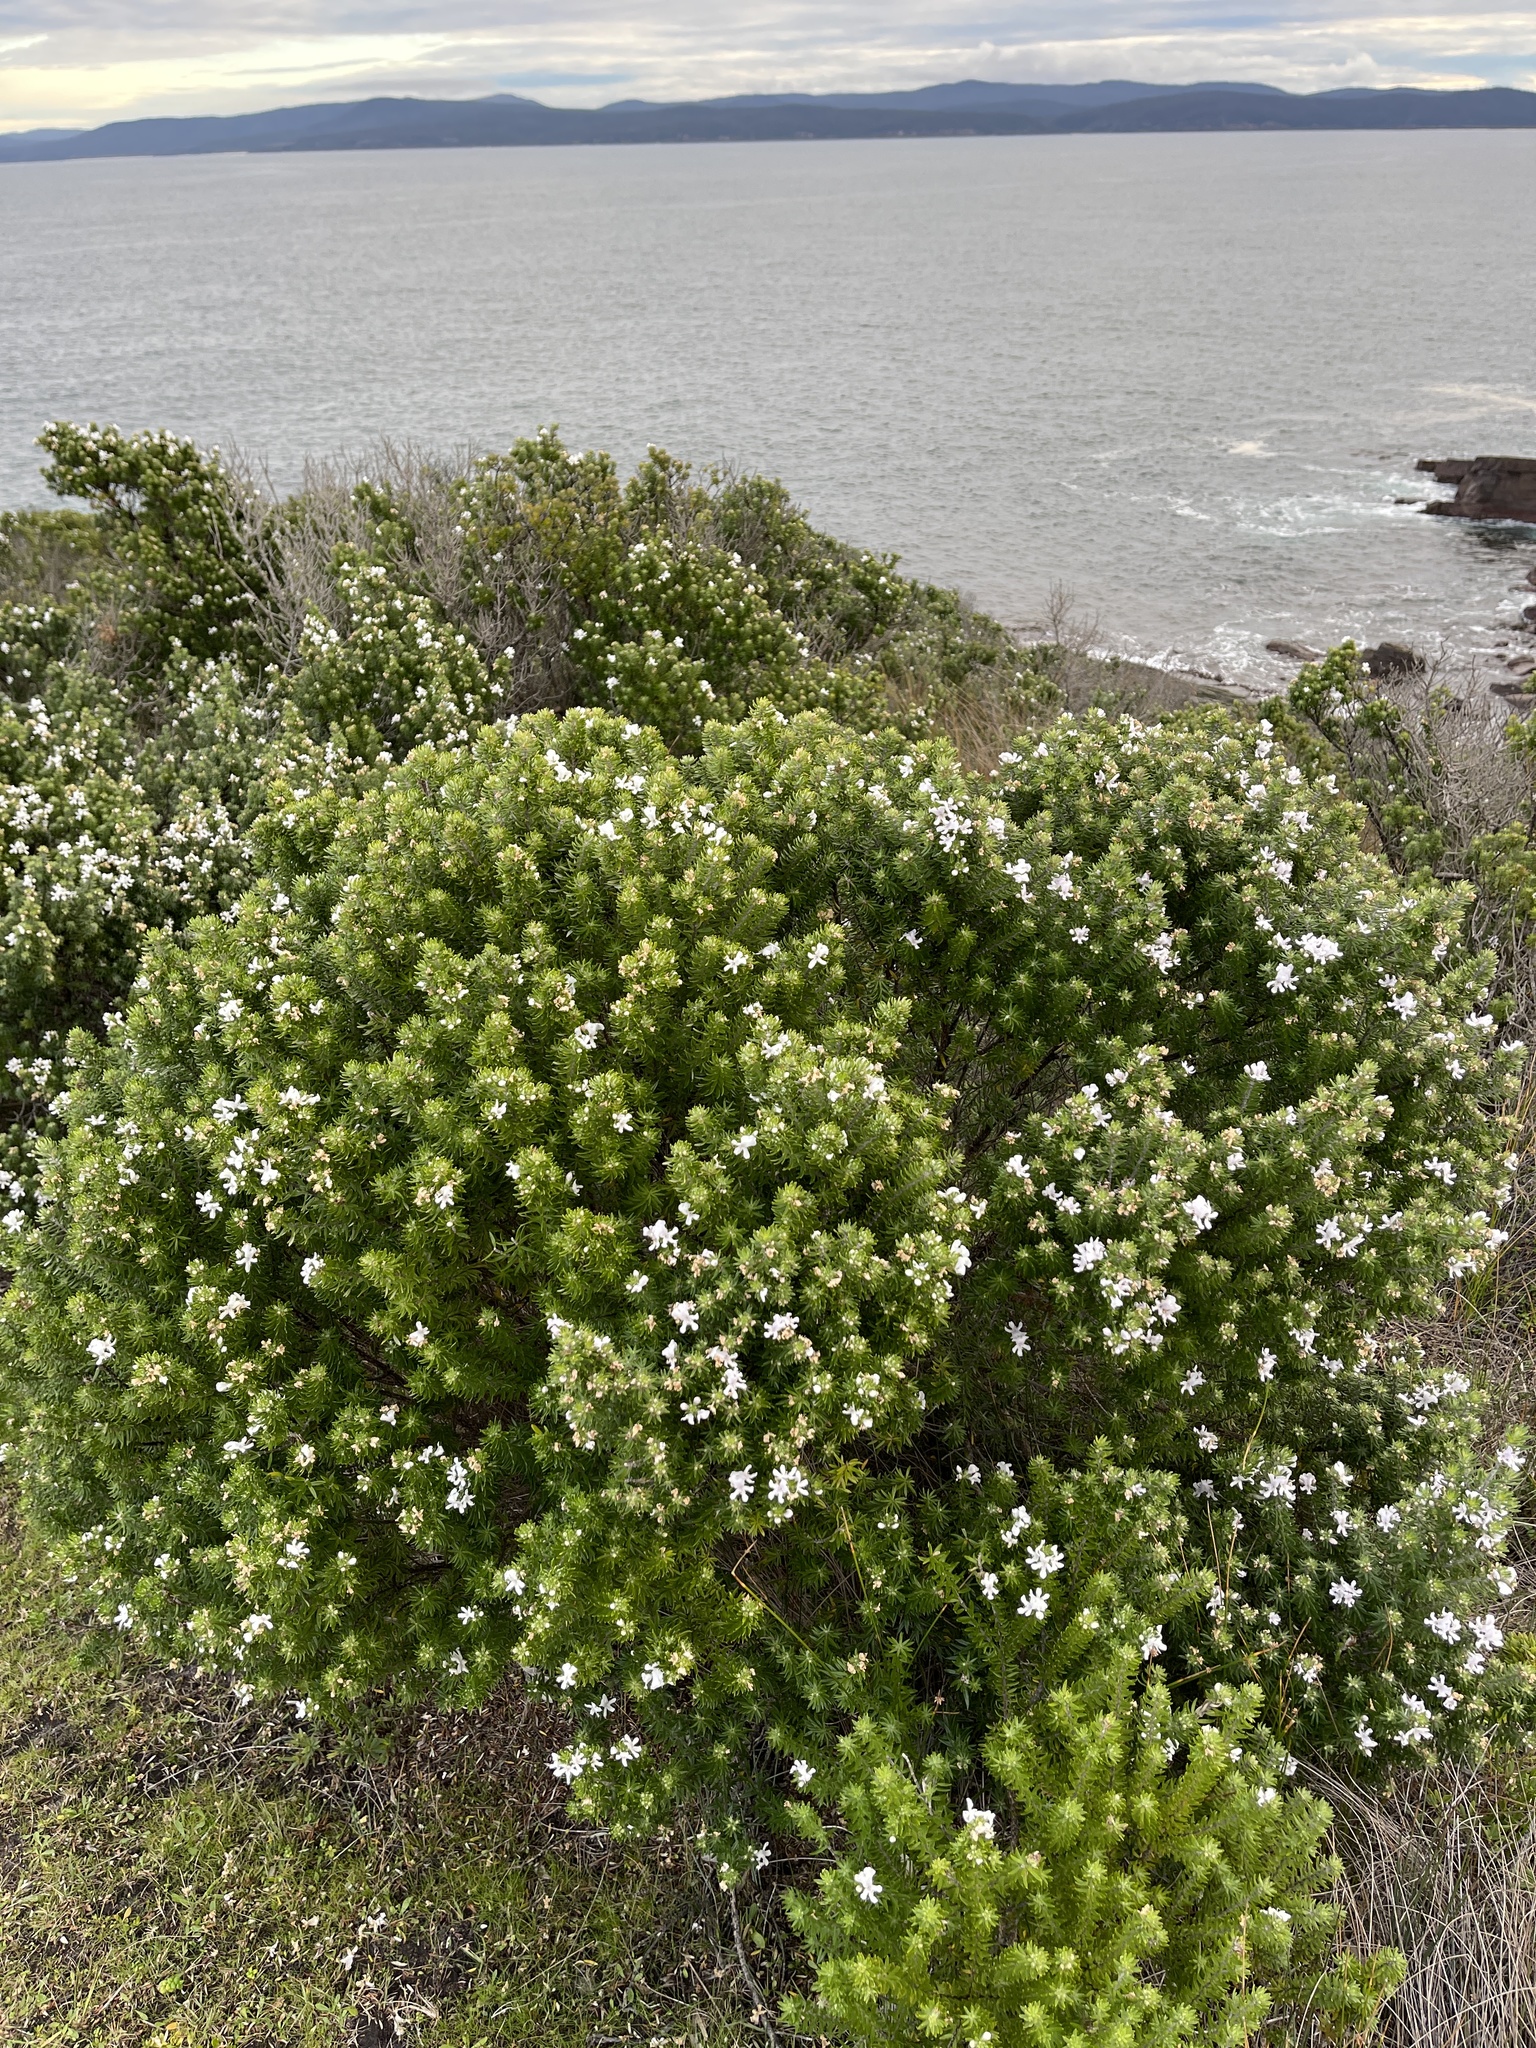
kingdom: Plantae
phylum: Tracheophyta
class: Magnoliopsida
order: Lamiales
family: Lamiaceae
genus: Westringia
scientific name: Westringia fruticosa
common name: Coastal-rosemary
